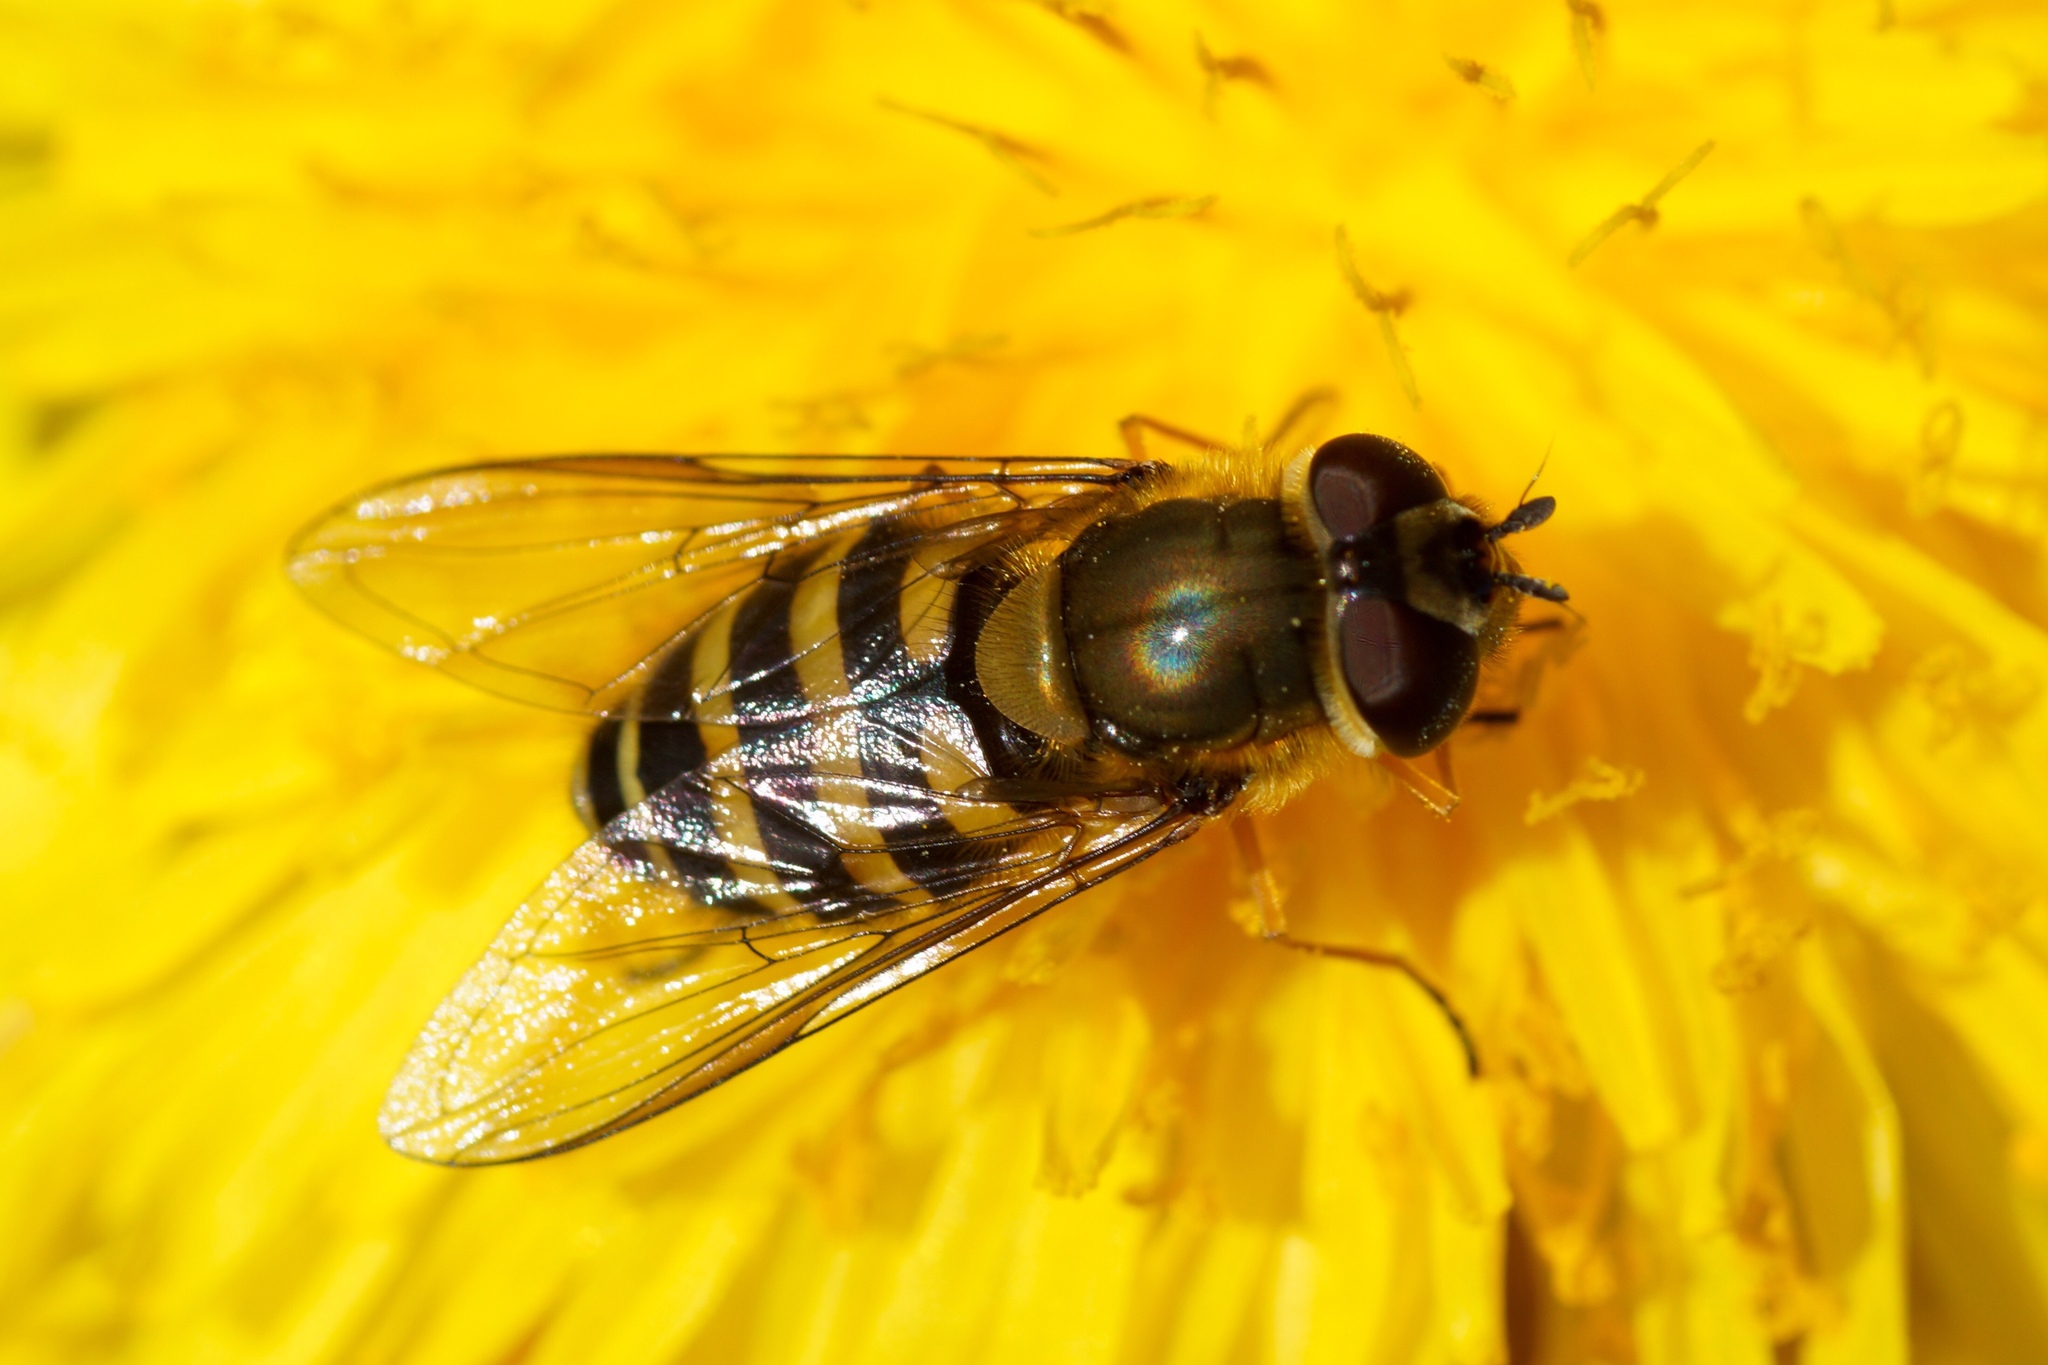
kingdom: Animalia
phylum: Arthropoda
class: Insecta
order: Diptera
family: Syrphidae
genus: Syrphus
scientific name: Syrphus torvus
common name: Hairy-eyed flower fly
